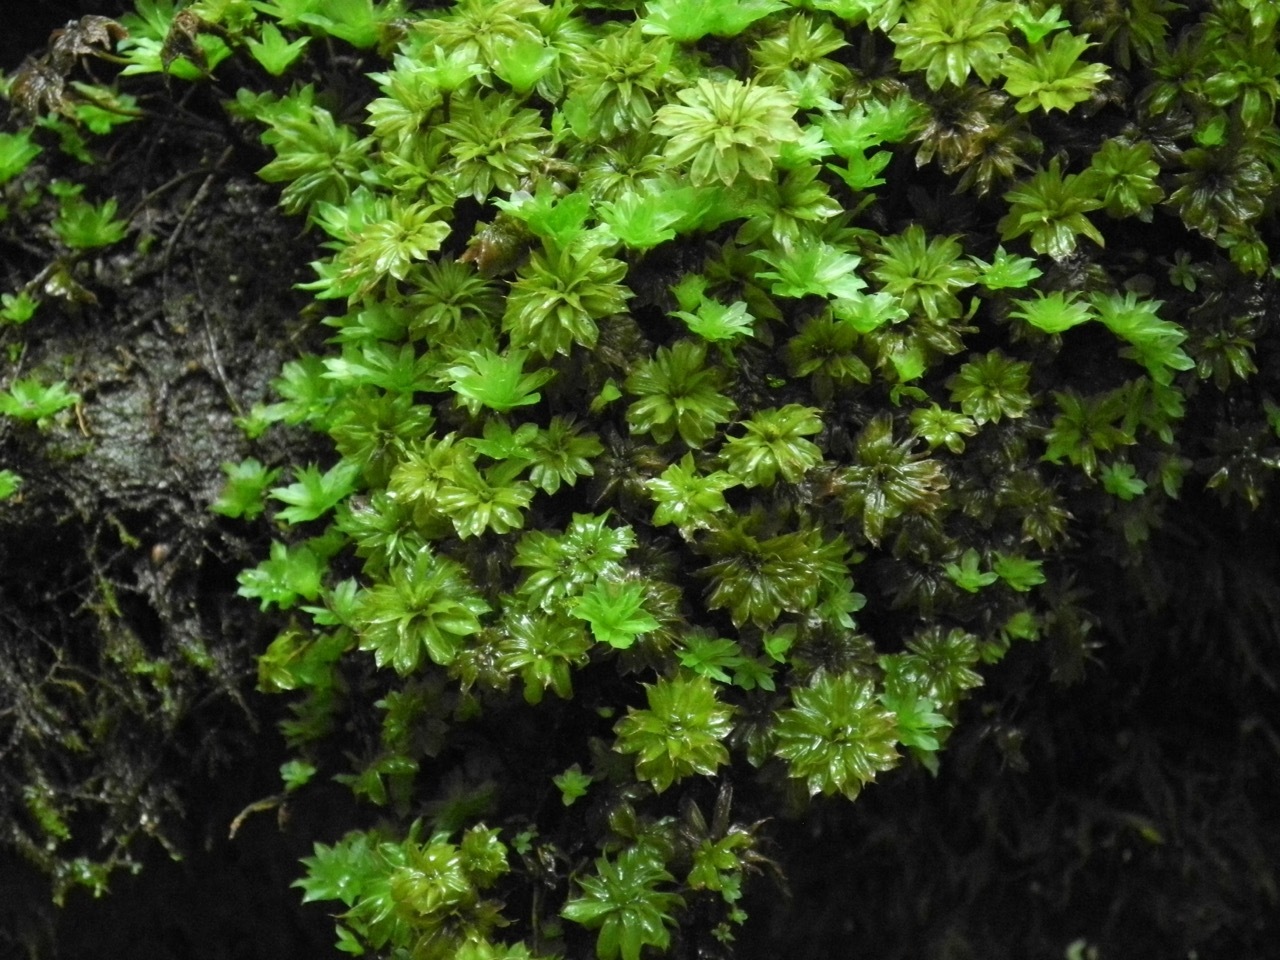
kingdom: Plantae
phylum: Bryophyta
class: Bryopsida
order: Bryales
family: Bryaceae
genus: Rhodobryum
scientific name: Rhodobryum ontariense
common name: Ontario rhodobryum moss
